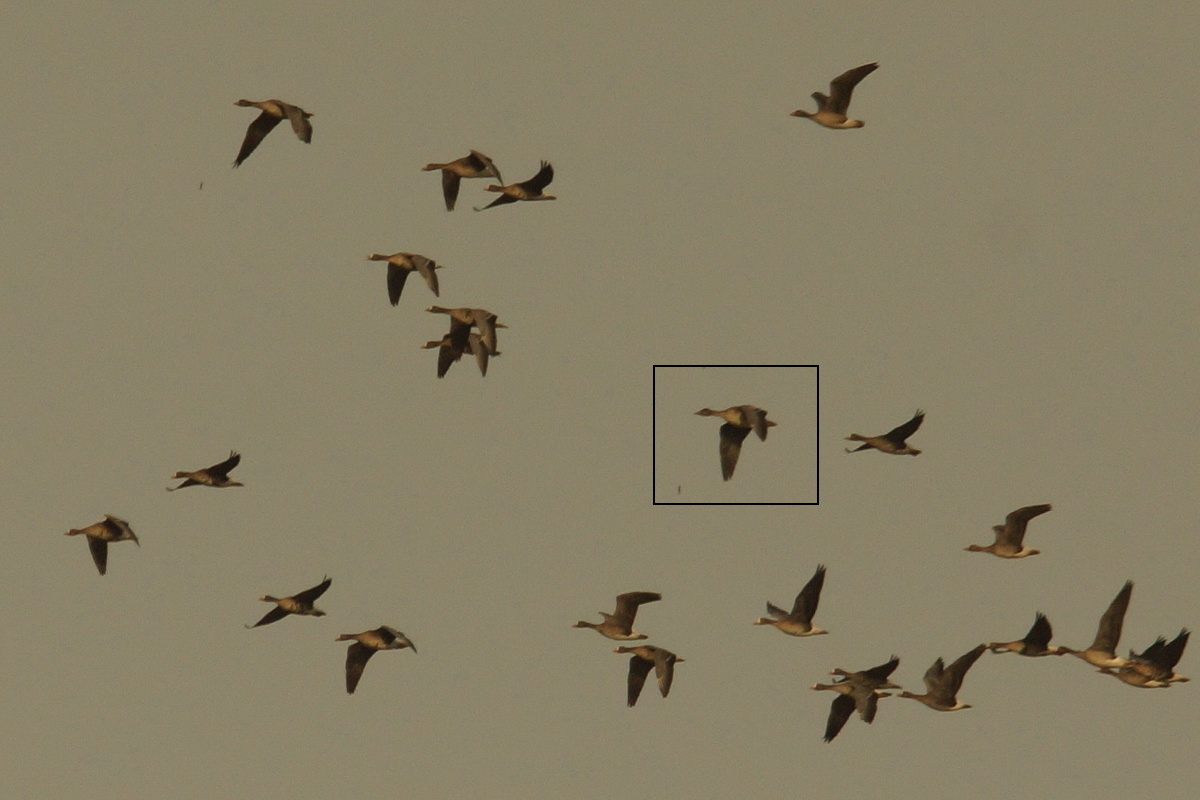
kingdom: Animalia
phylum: Chordata
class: Aves
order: Anseriformes
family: Anatidae
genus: Anser
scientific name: Anser serrirostris
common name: Tundra bean goose
